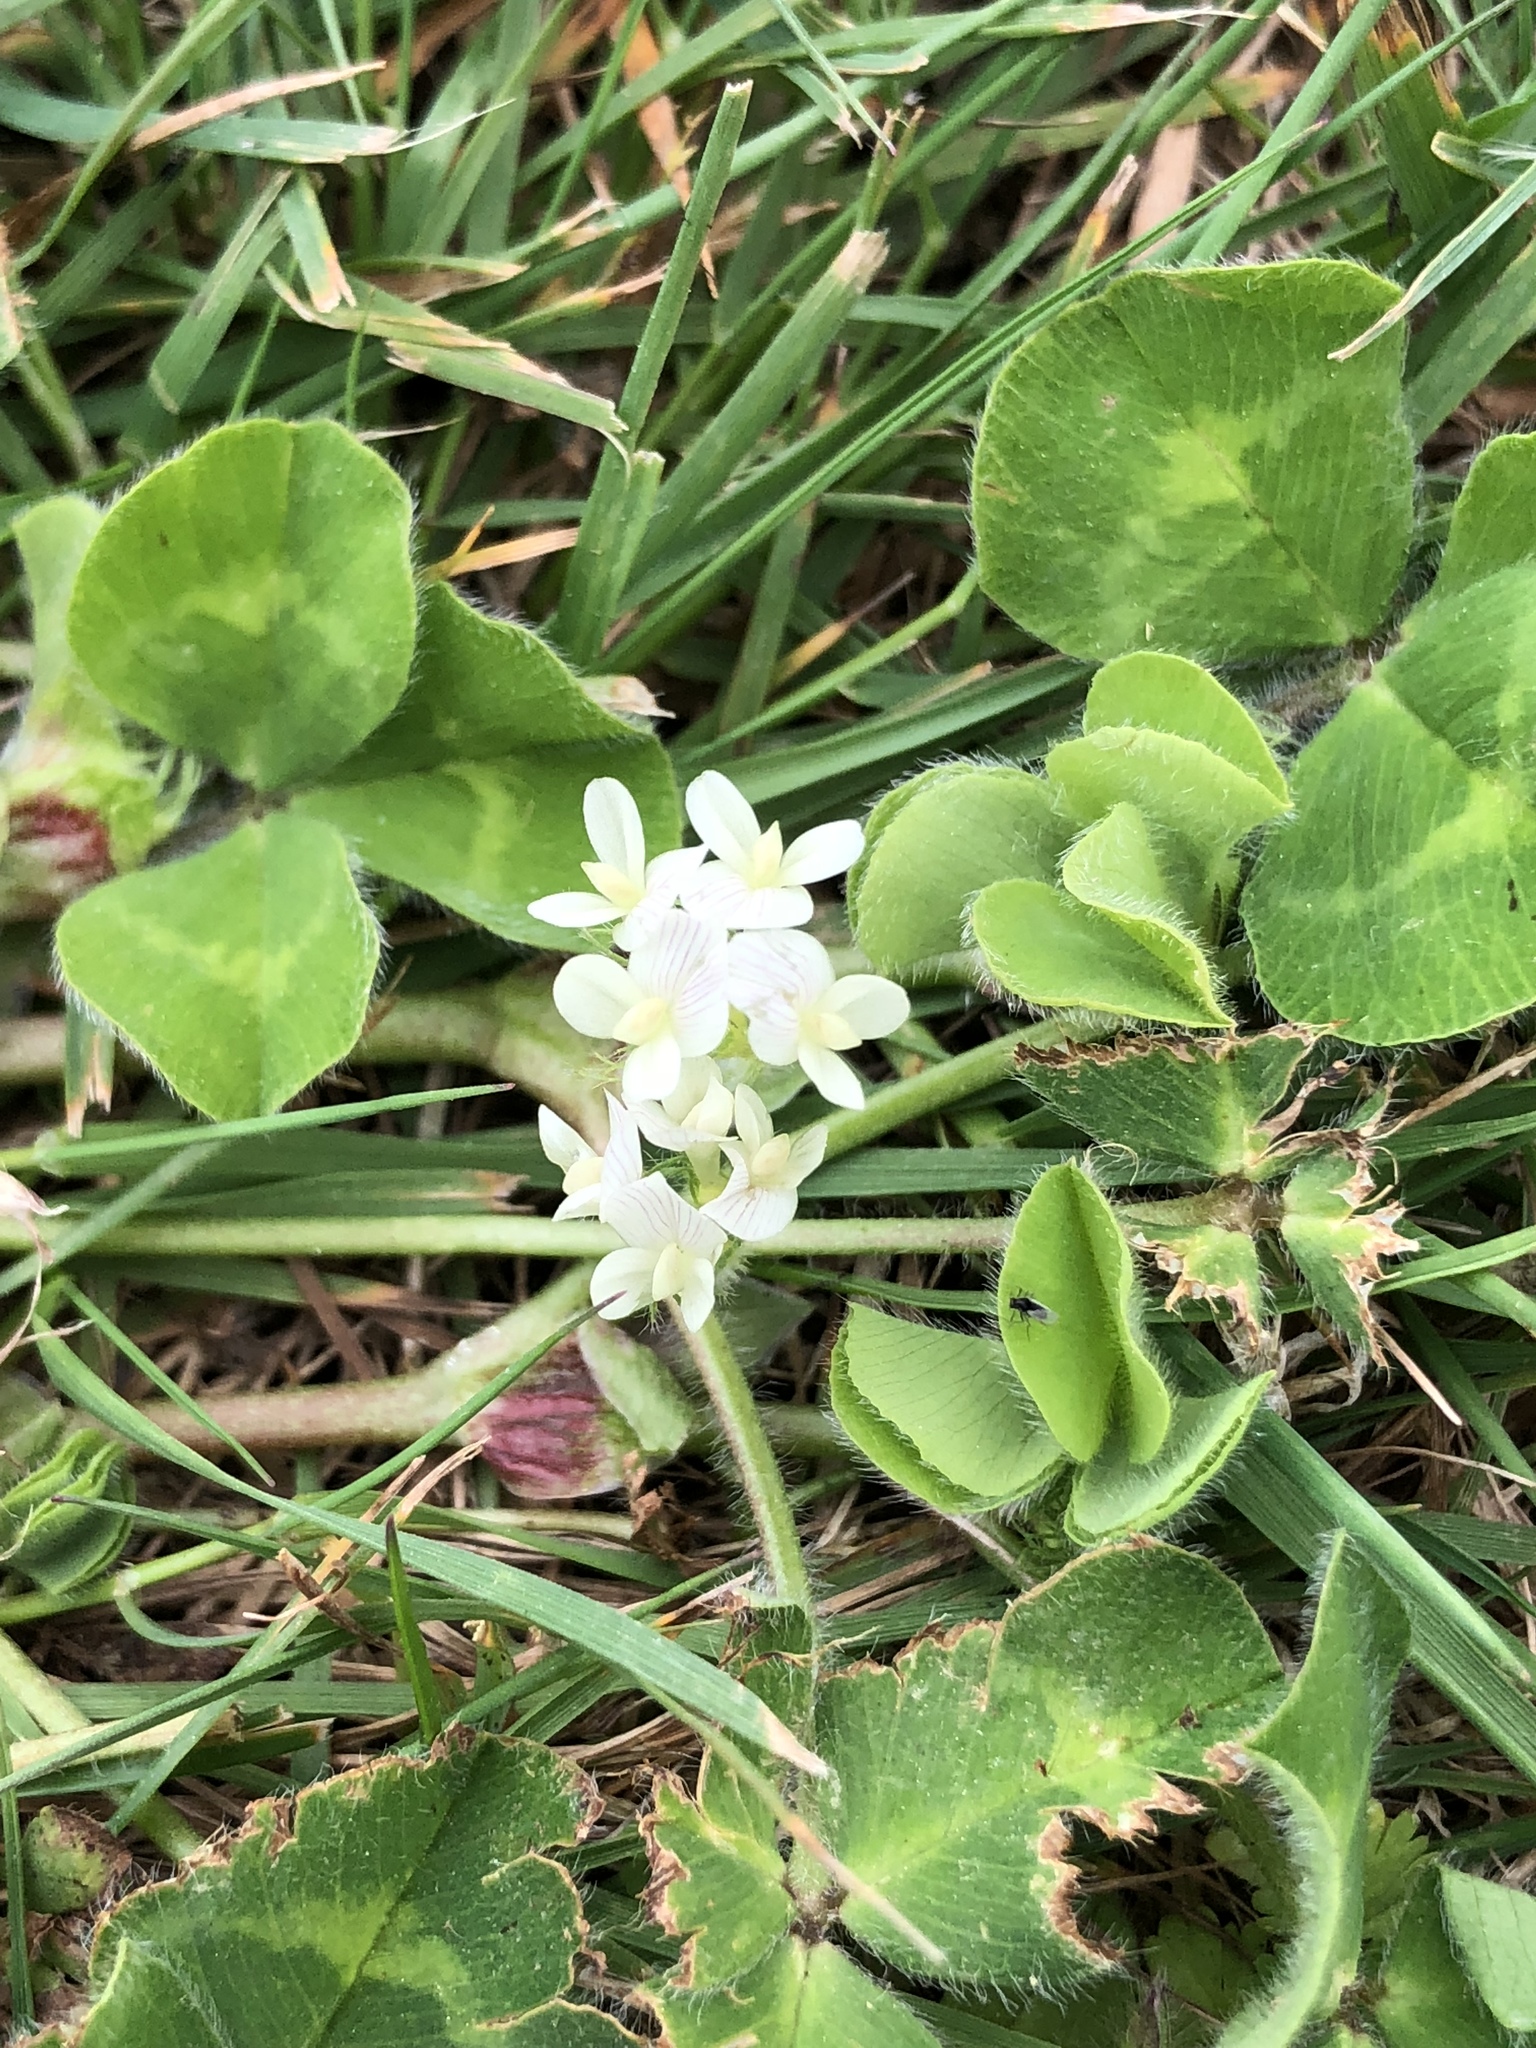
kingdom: Plantae
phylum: Tracheophyta
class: Magnoliopsida
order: Fabales
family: Fabaceae
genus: Trifolium
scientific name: Trifolium subterraneum
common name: Subterranean clover
